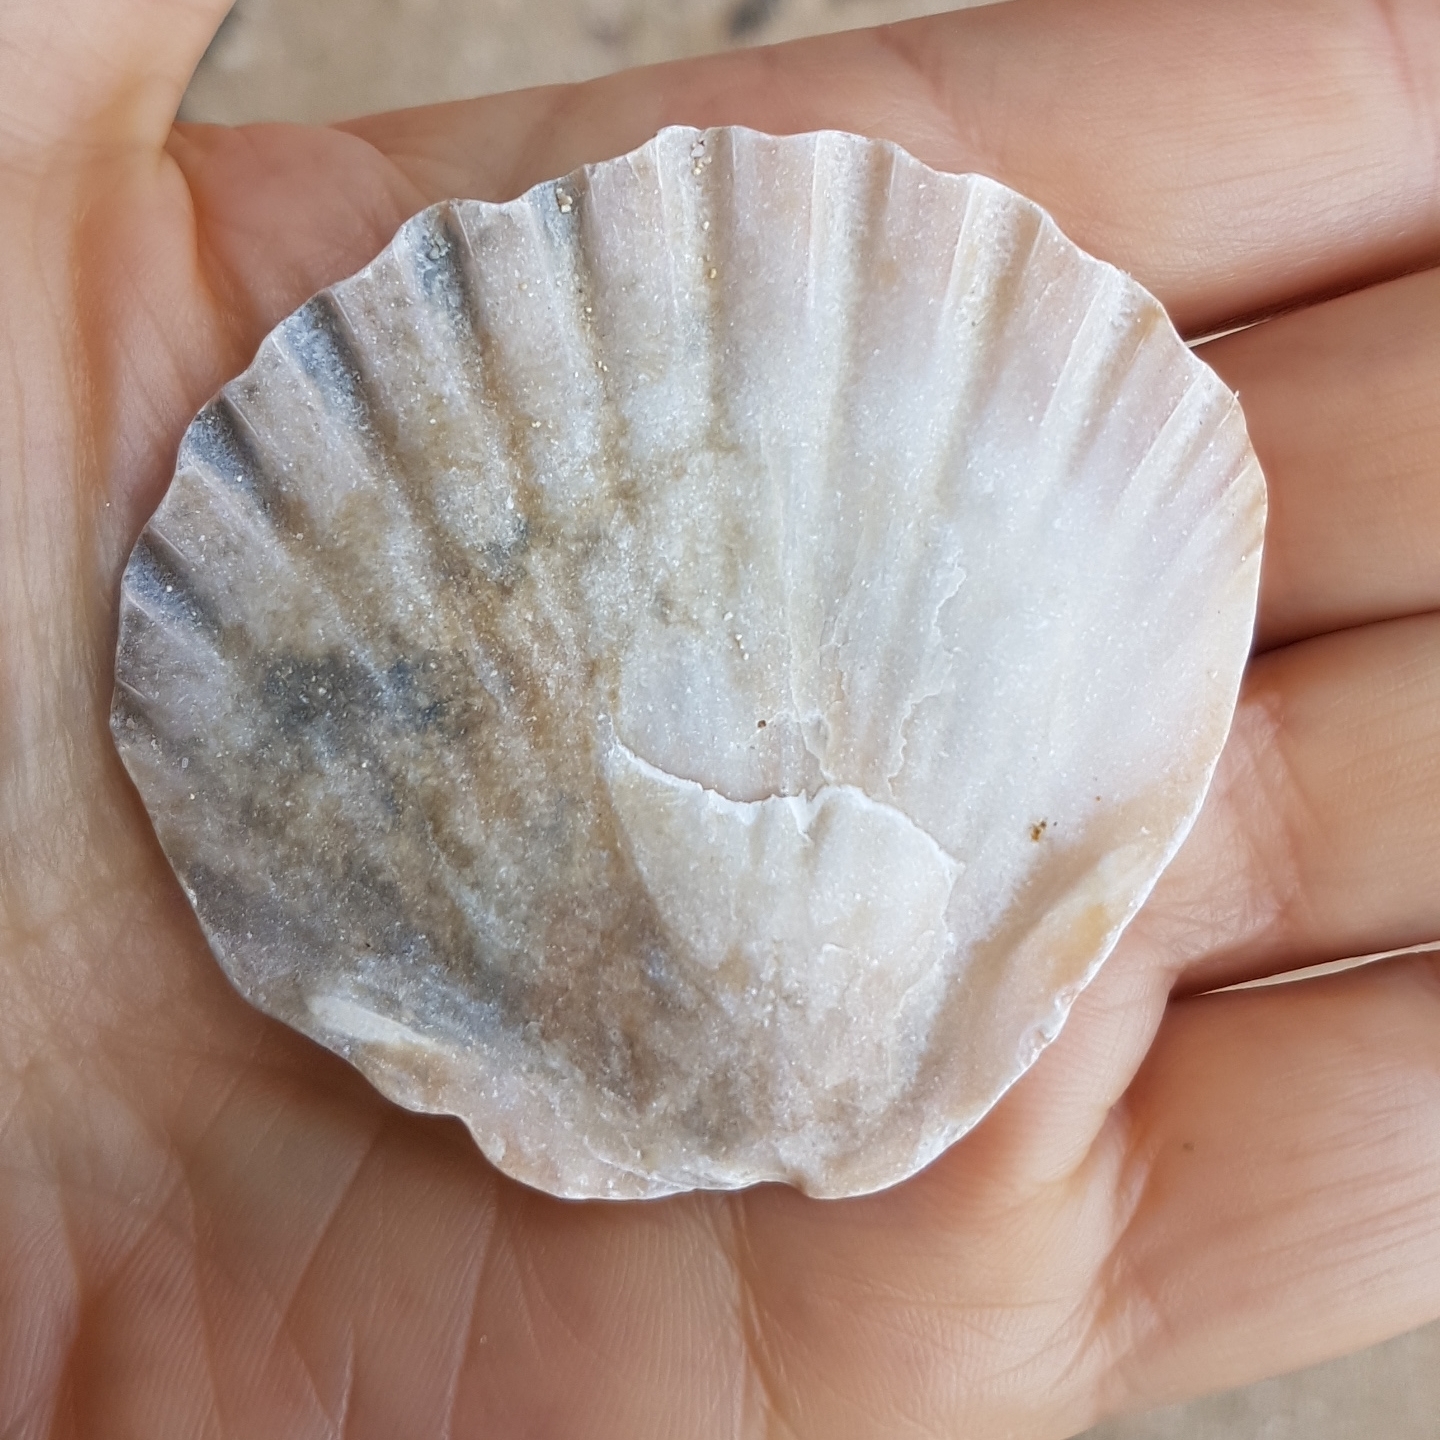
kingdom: Animalia
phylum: Mollusca
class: Bivalvia
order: Pectinida
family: Pectinidae
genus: Pecten
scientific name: Pecten maximus
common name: Great scallop
